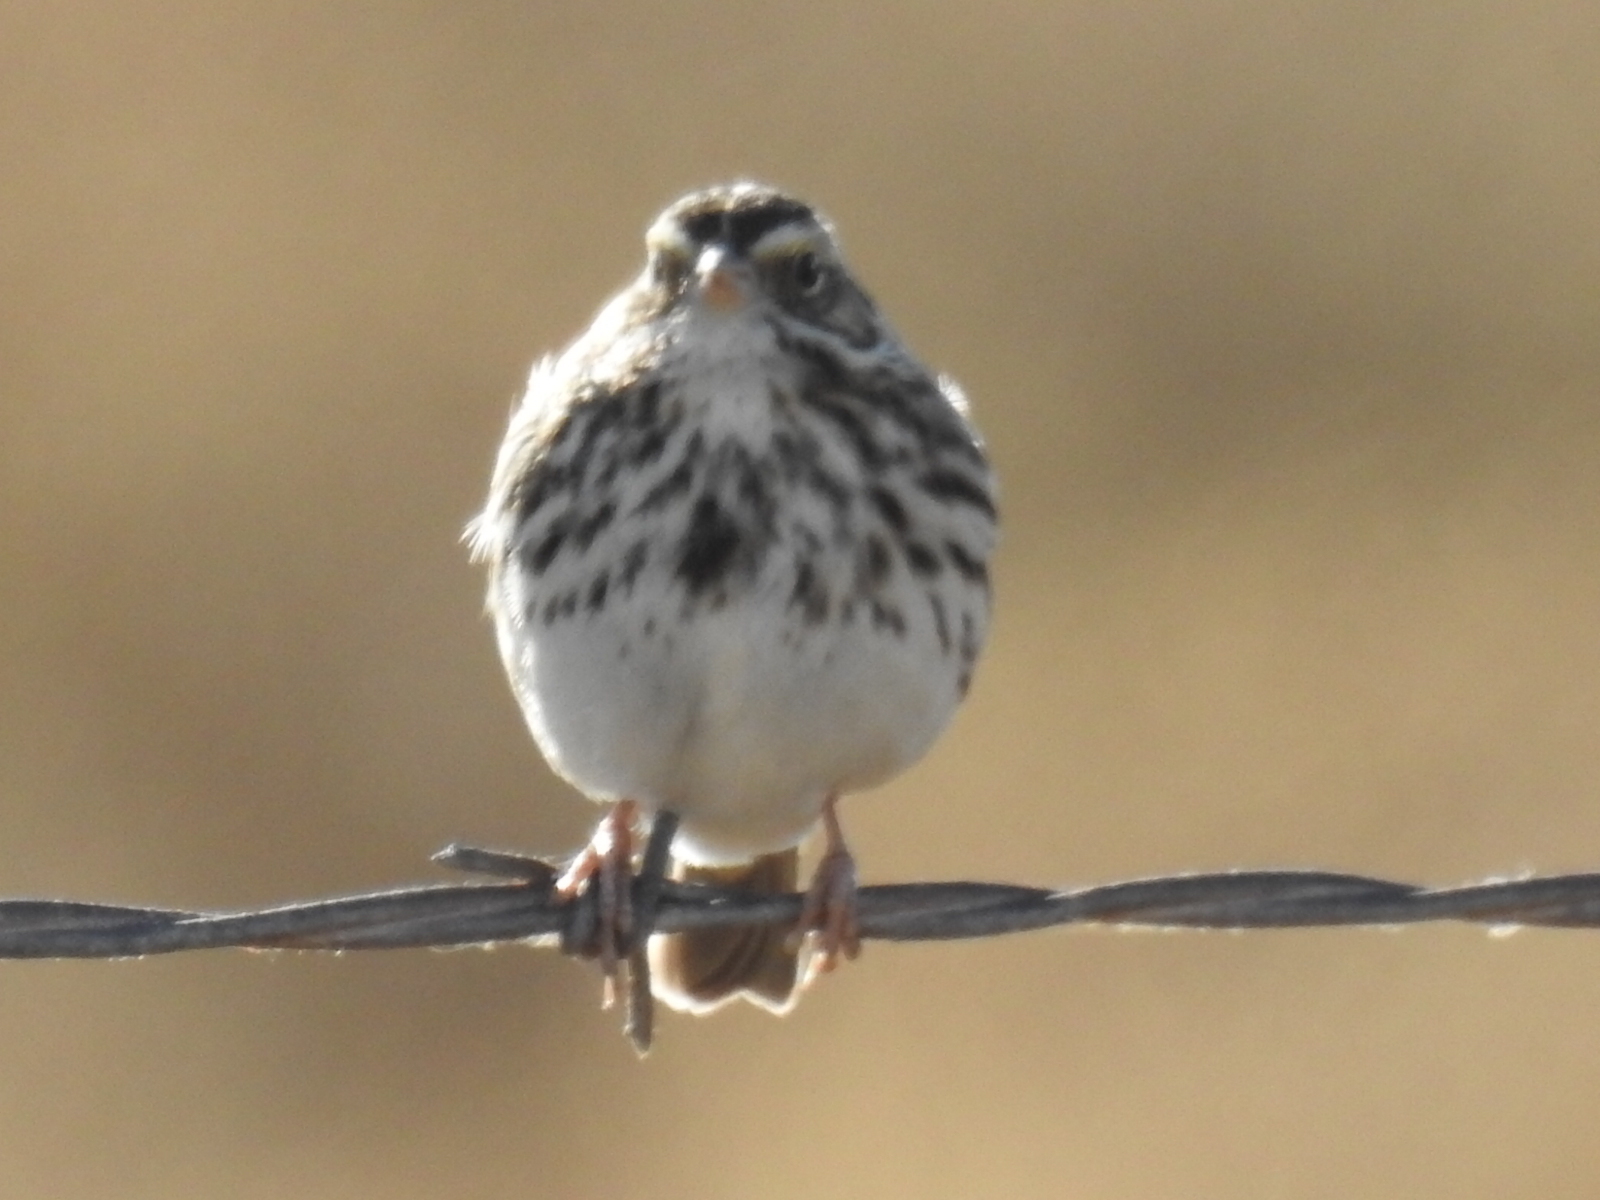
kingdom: Animalia
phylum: Chordata
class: Aves
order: Passeriformes
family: Passerellidae
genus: Passerculus
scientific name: Passerculus sandwichensis
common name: Savannah sparrow
